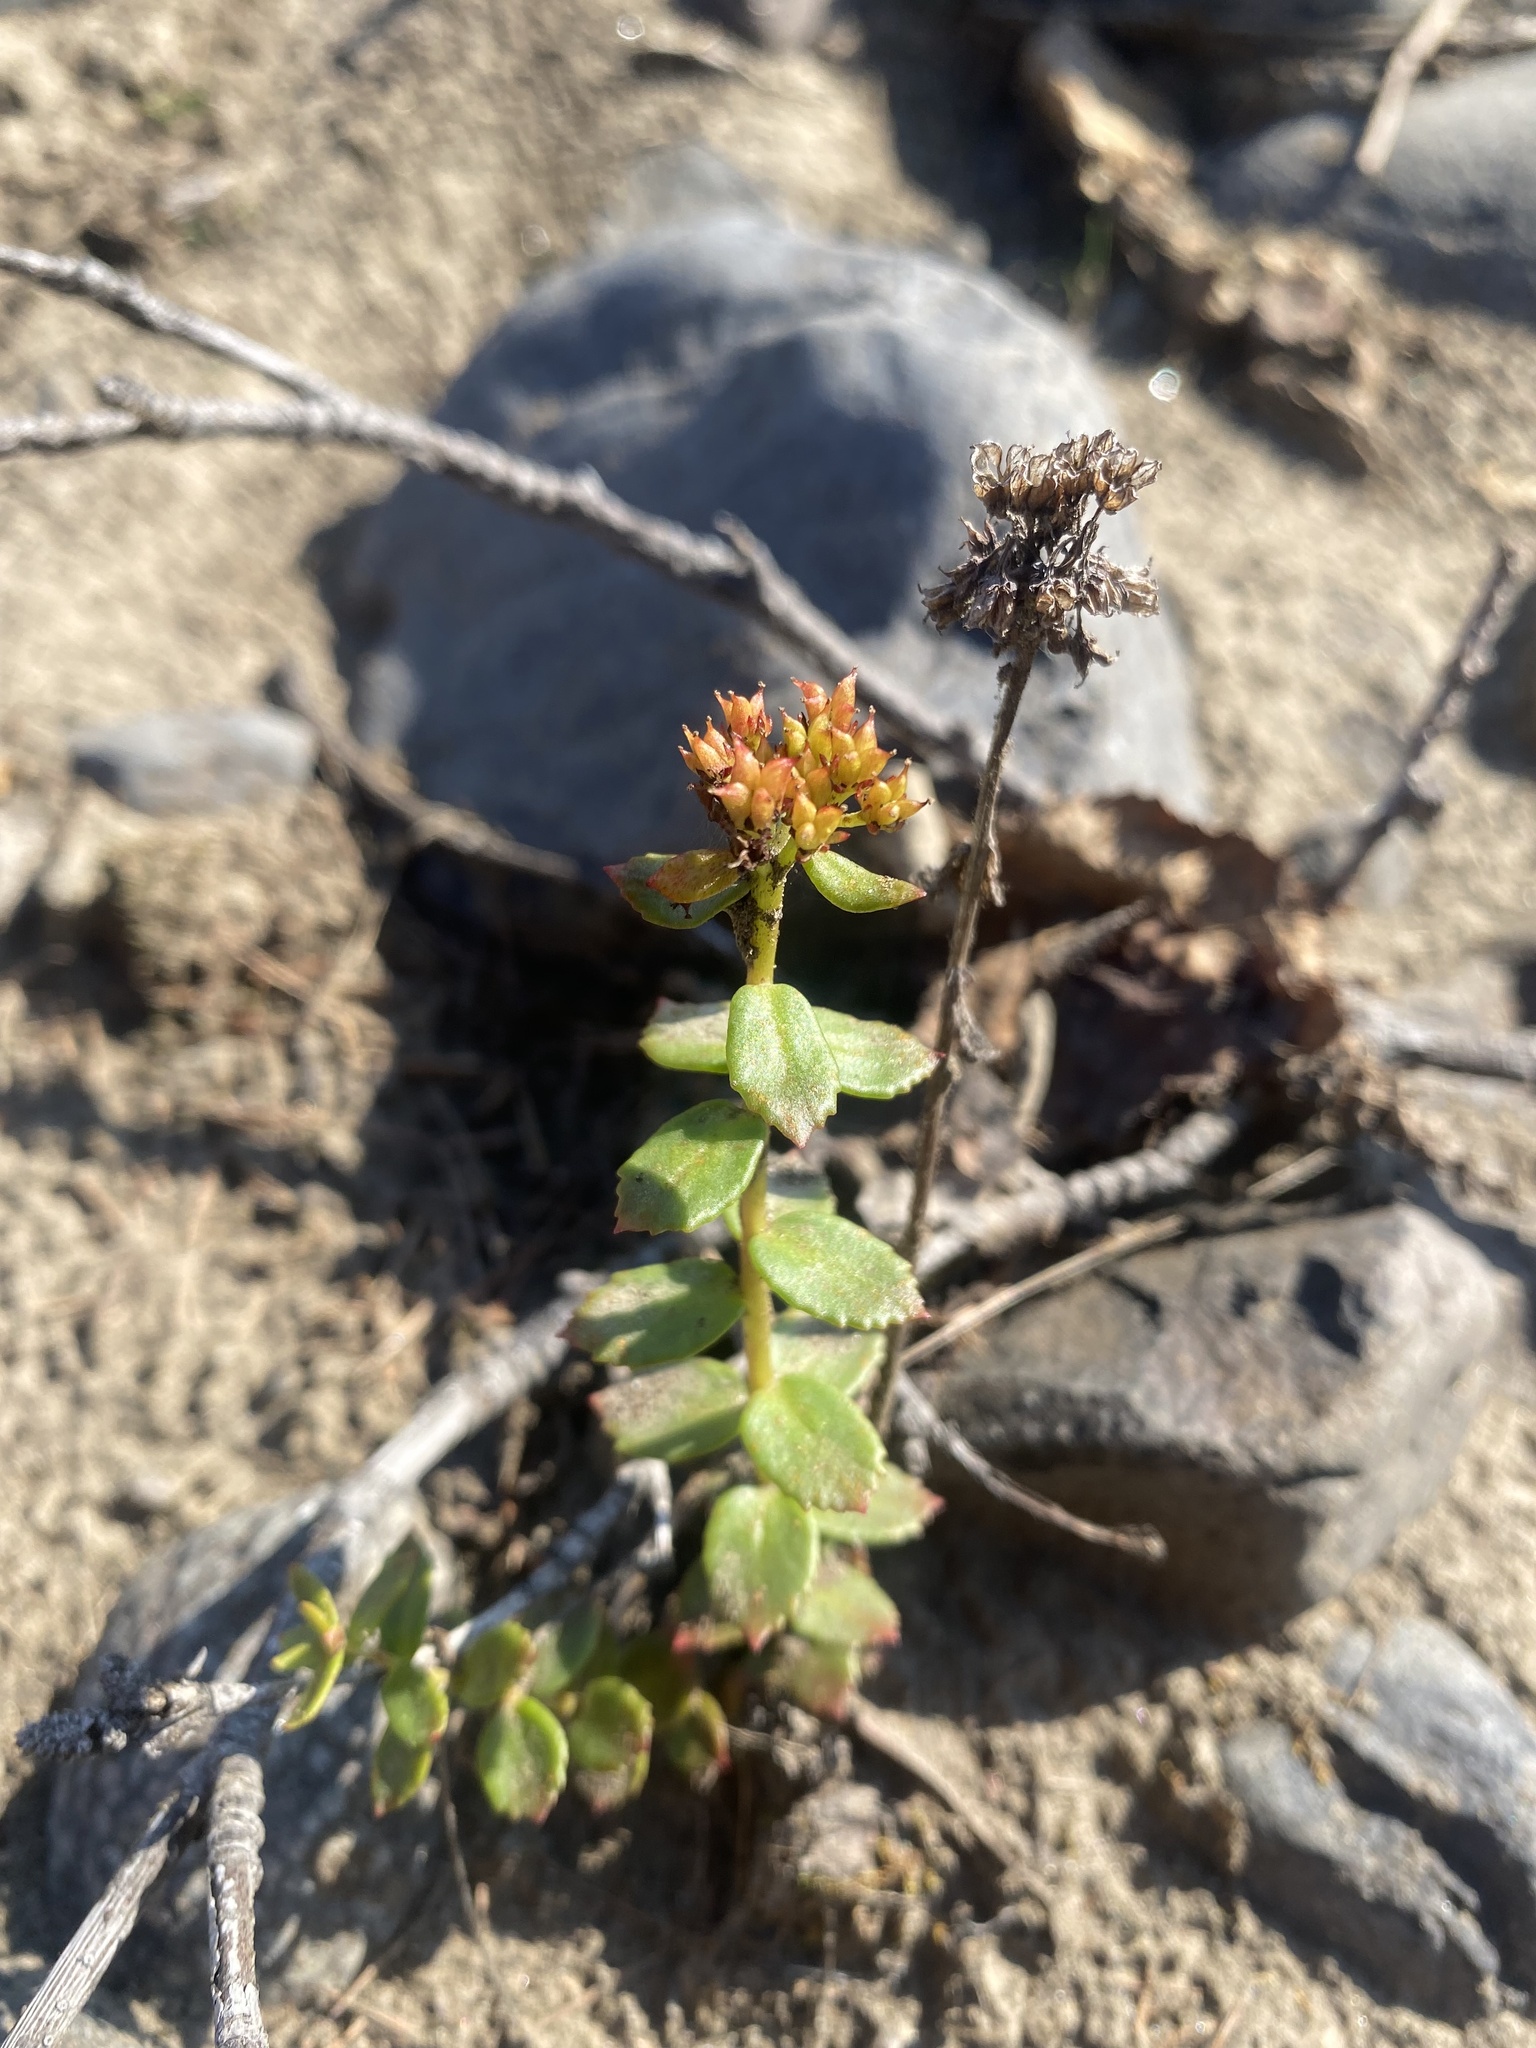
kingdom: Plantae
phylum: Tracheophyta
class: Magnoliopsida
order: Saxifragales
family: Crassulaceae
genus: Rhodiola
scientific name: Rhodiola rosea
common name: Roseroot
